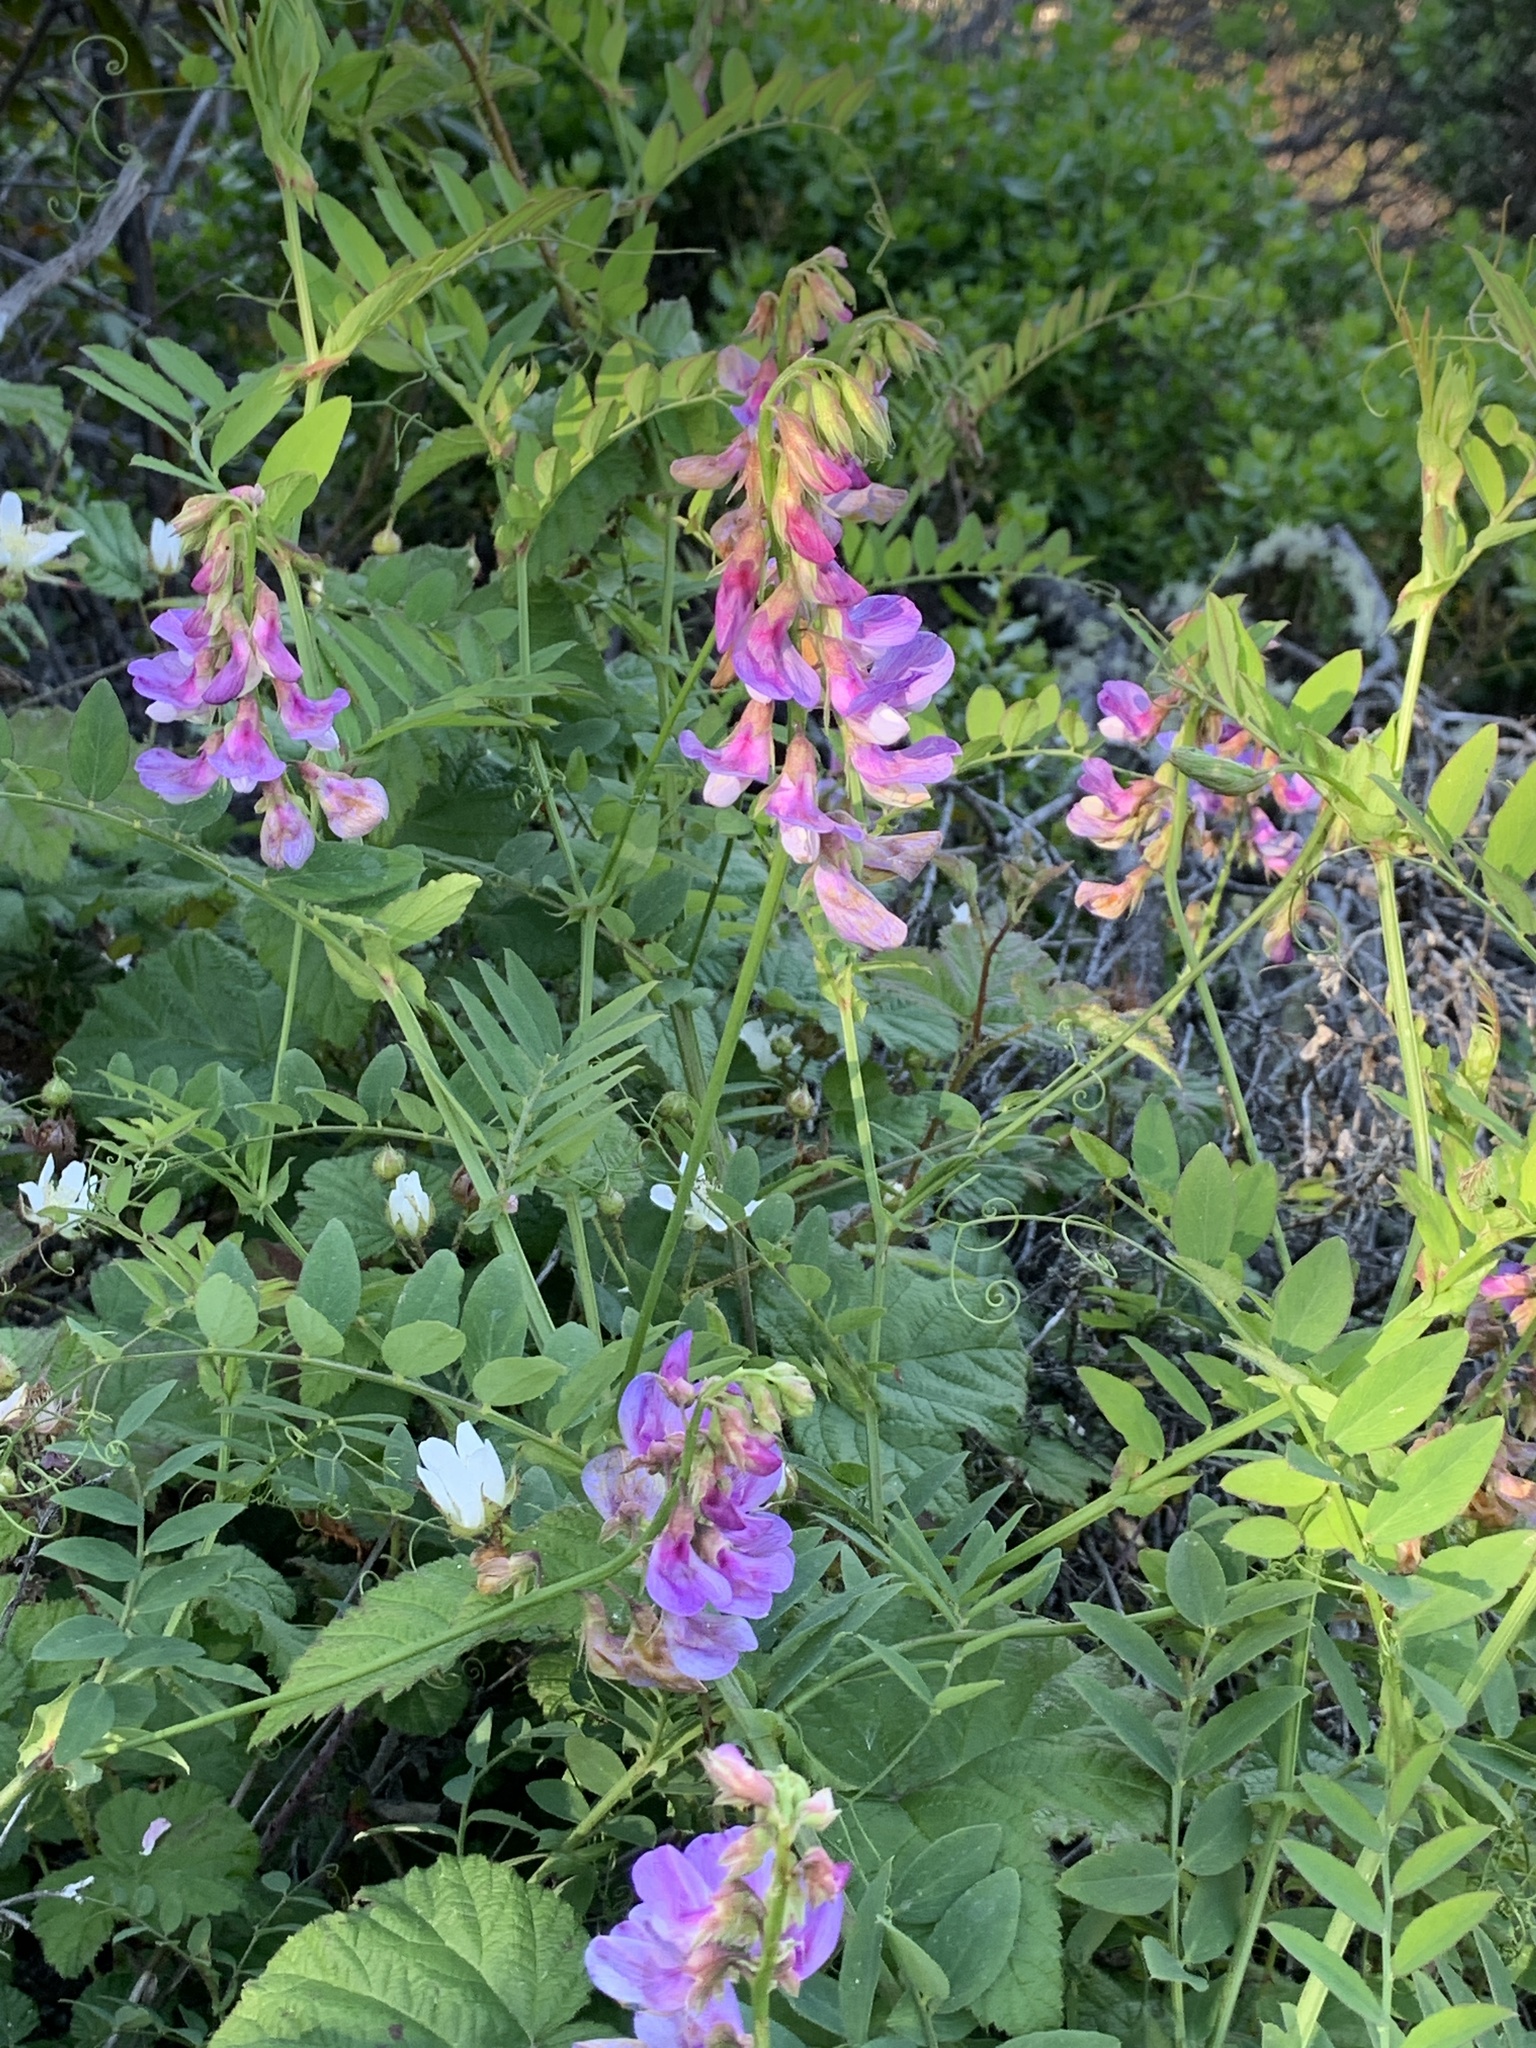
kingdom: Plantae
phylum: Tracheophyta
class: Magnoliopsida
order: Fabales
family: Fabaceae
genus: Lathyrus
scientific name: Lathyrus vestitus
